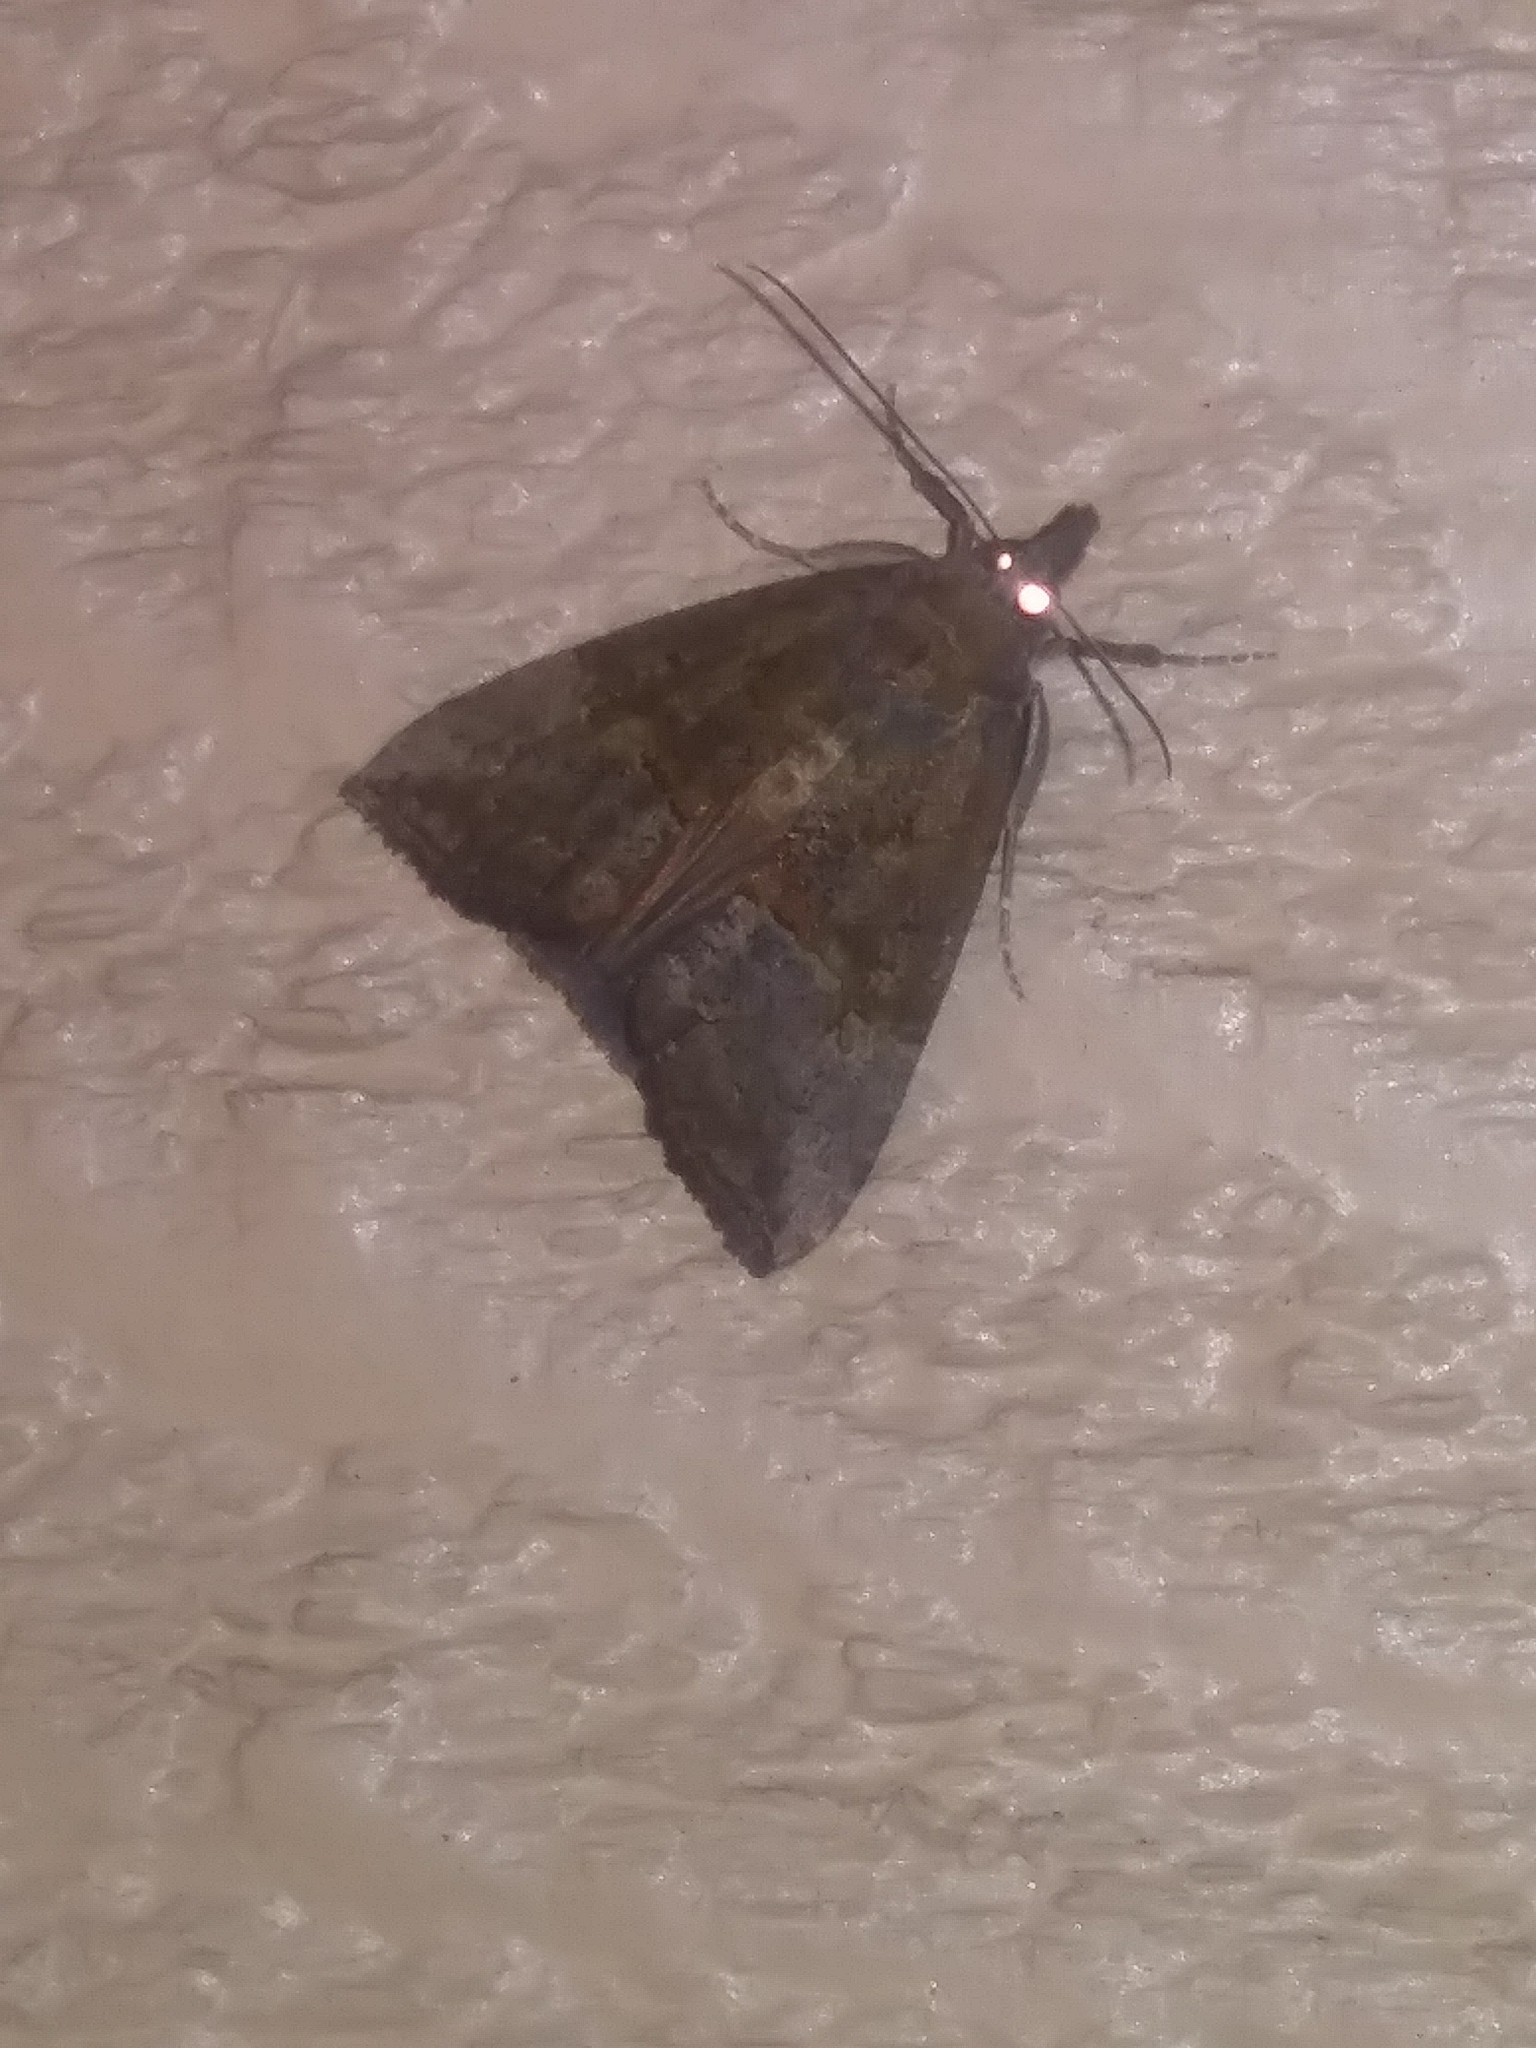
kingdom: Animalia
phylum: Arthropoda
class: Insecta
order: Lepidoptera
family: Erebidae
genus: Hypena
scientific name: Hypena scabra
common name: Green cloverworm
